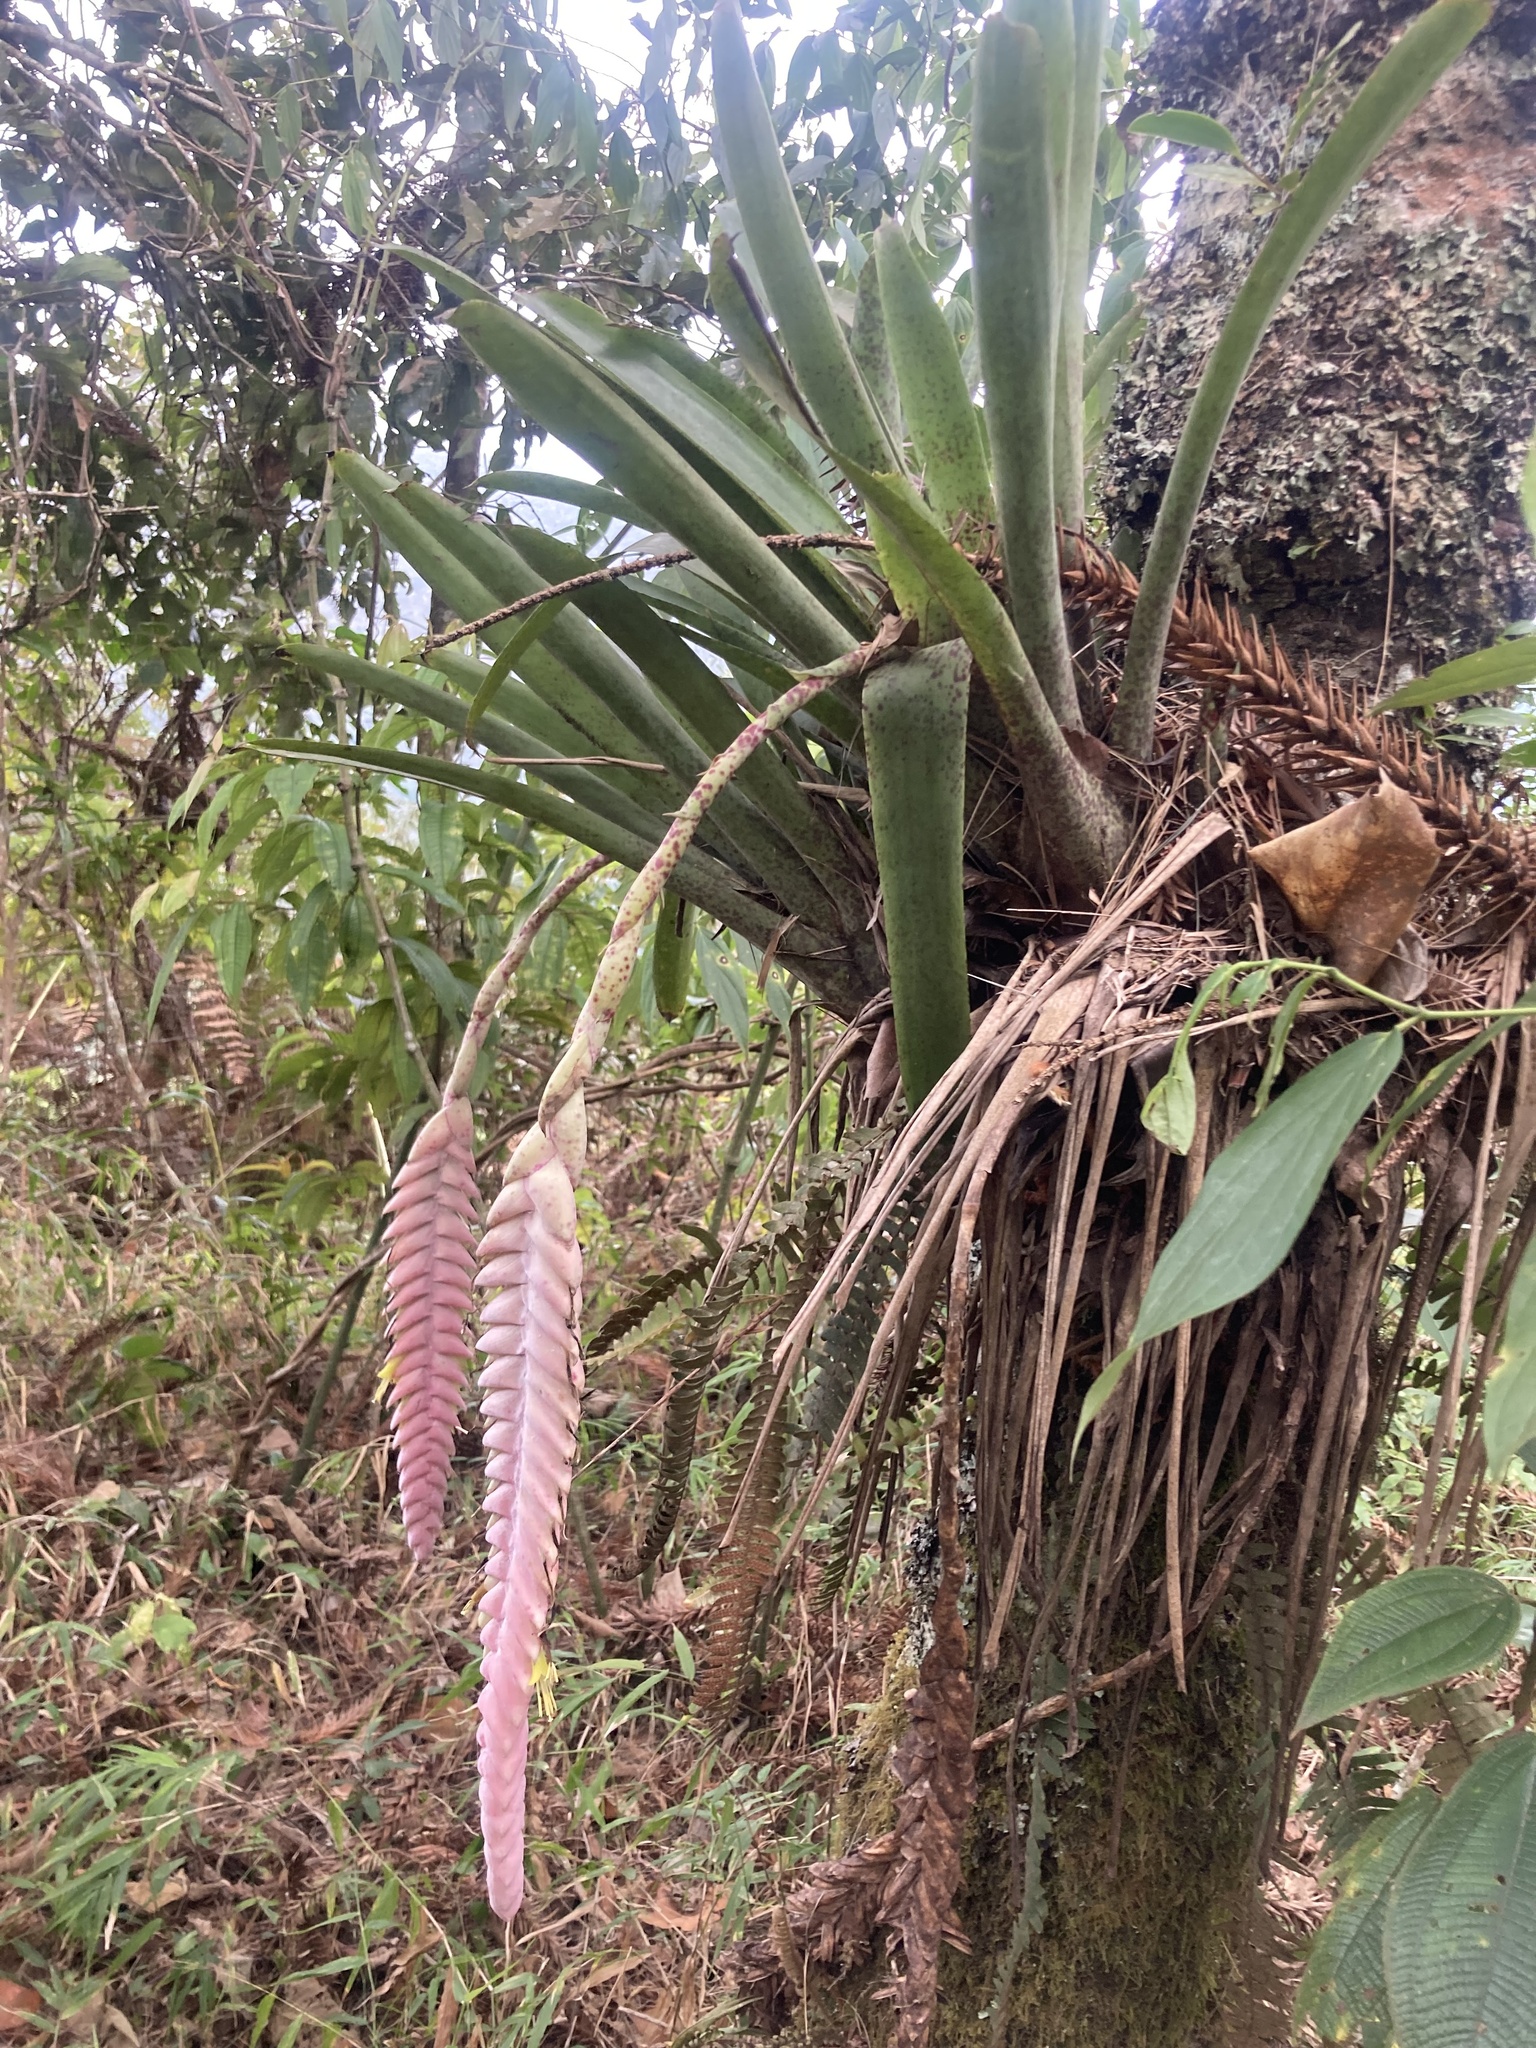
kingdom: Plantae
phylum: Tracheophyta
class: Liliopsida
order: Poales
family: Bromeliaceae
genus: Vriesea
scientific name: Vriesea pardalina
